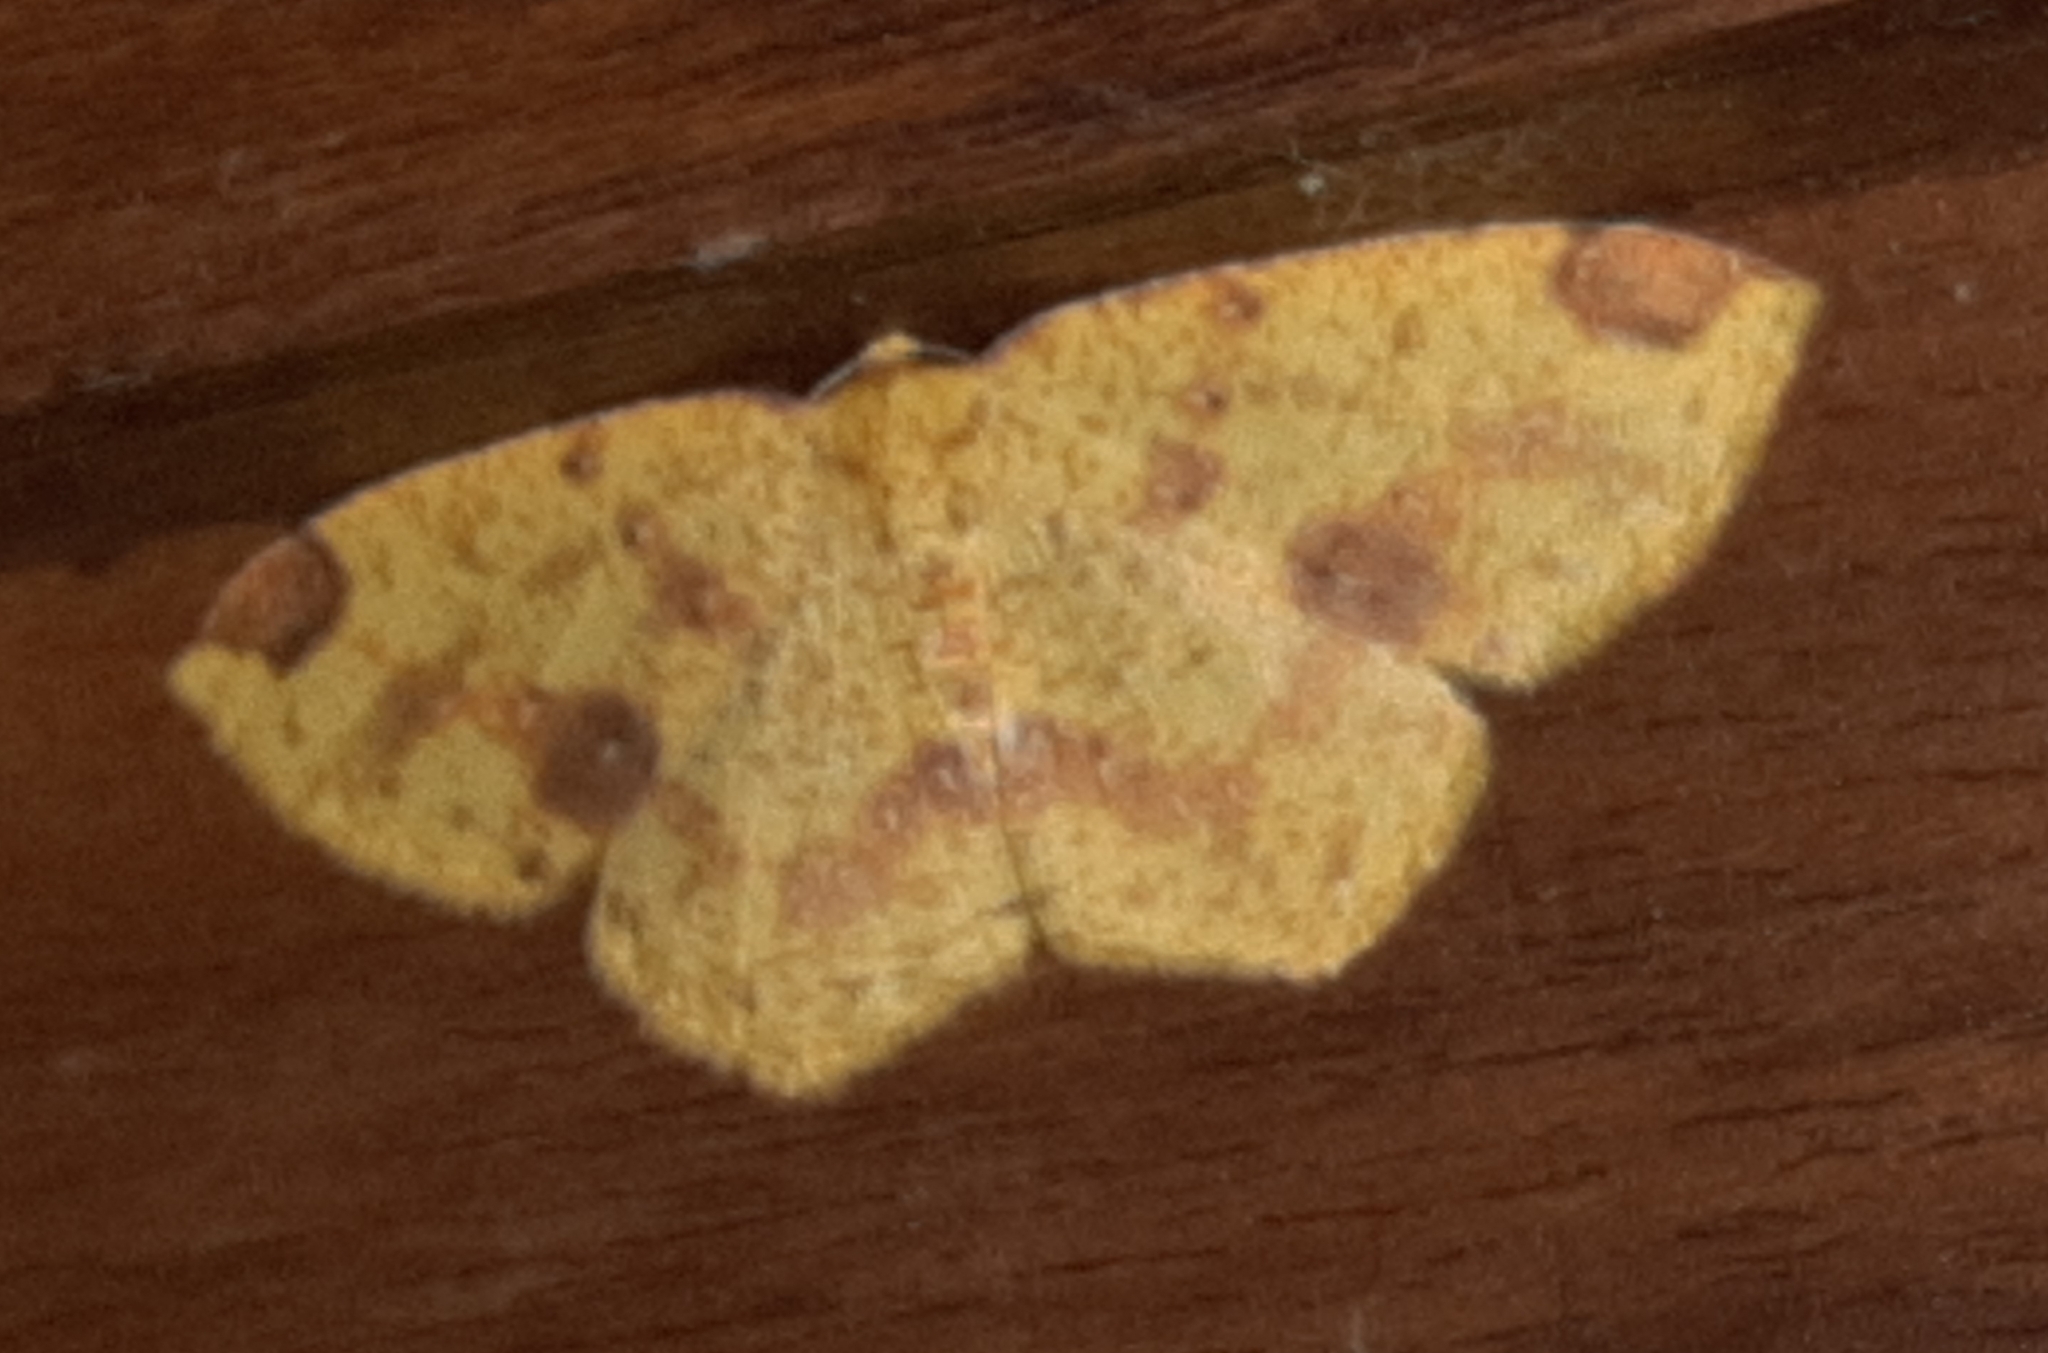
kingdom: Animalia
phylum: Arthropoda
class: Insecta
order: Lepidoptera
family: Geometridae
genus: Periclina
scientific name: Periclina apricaria
